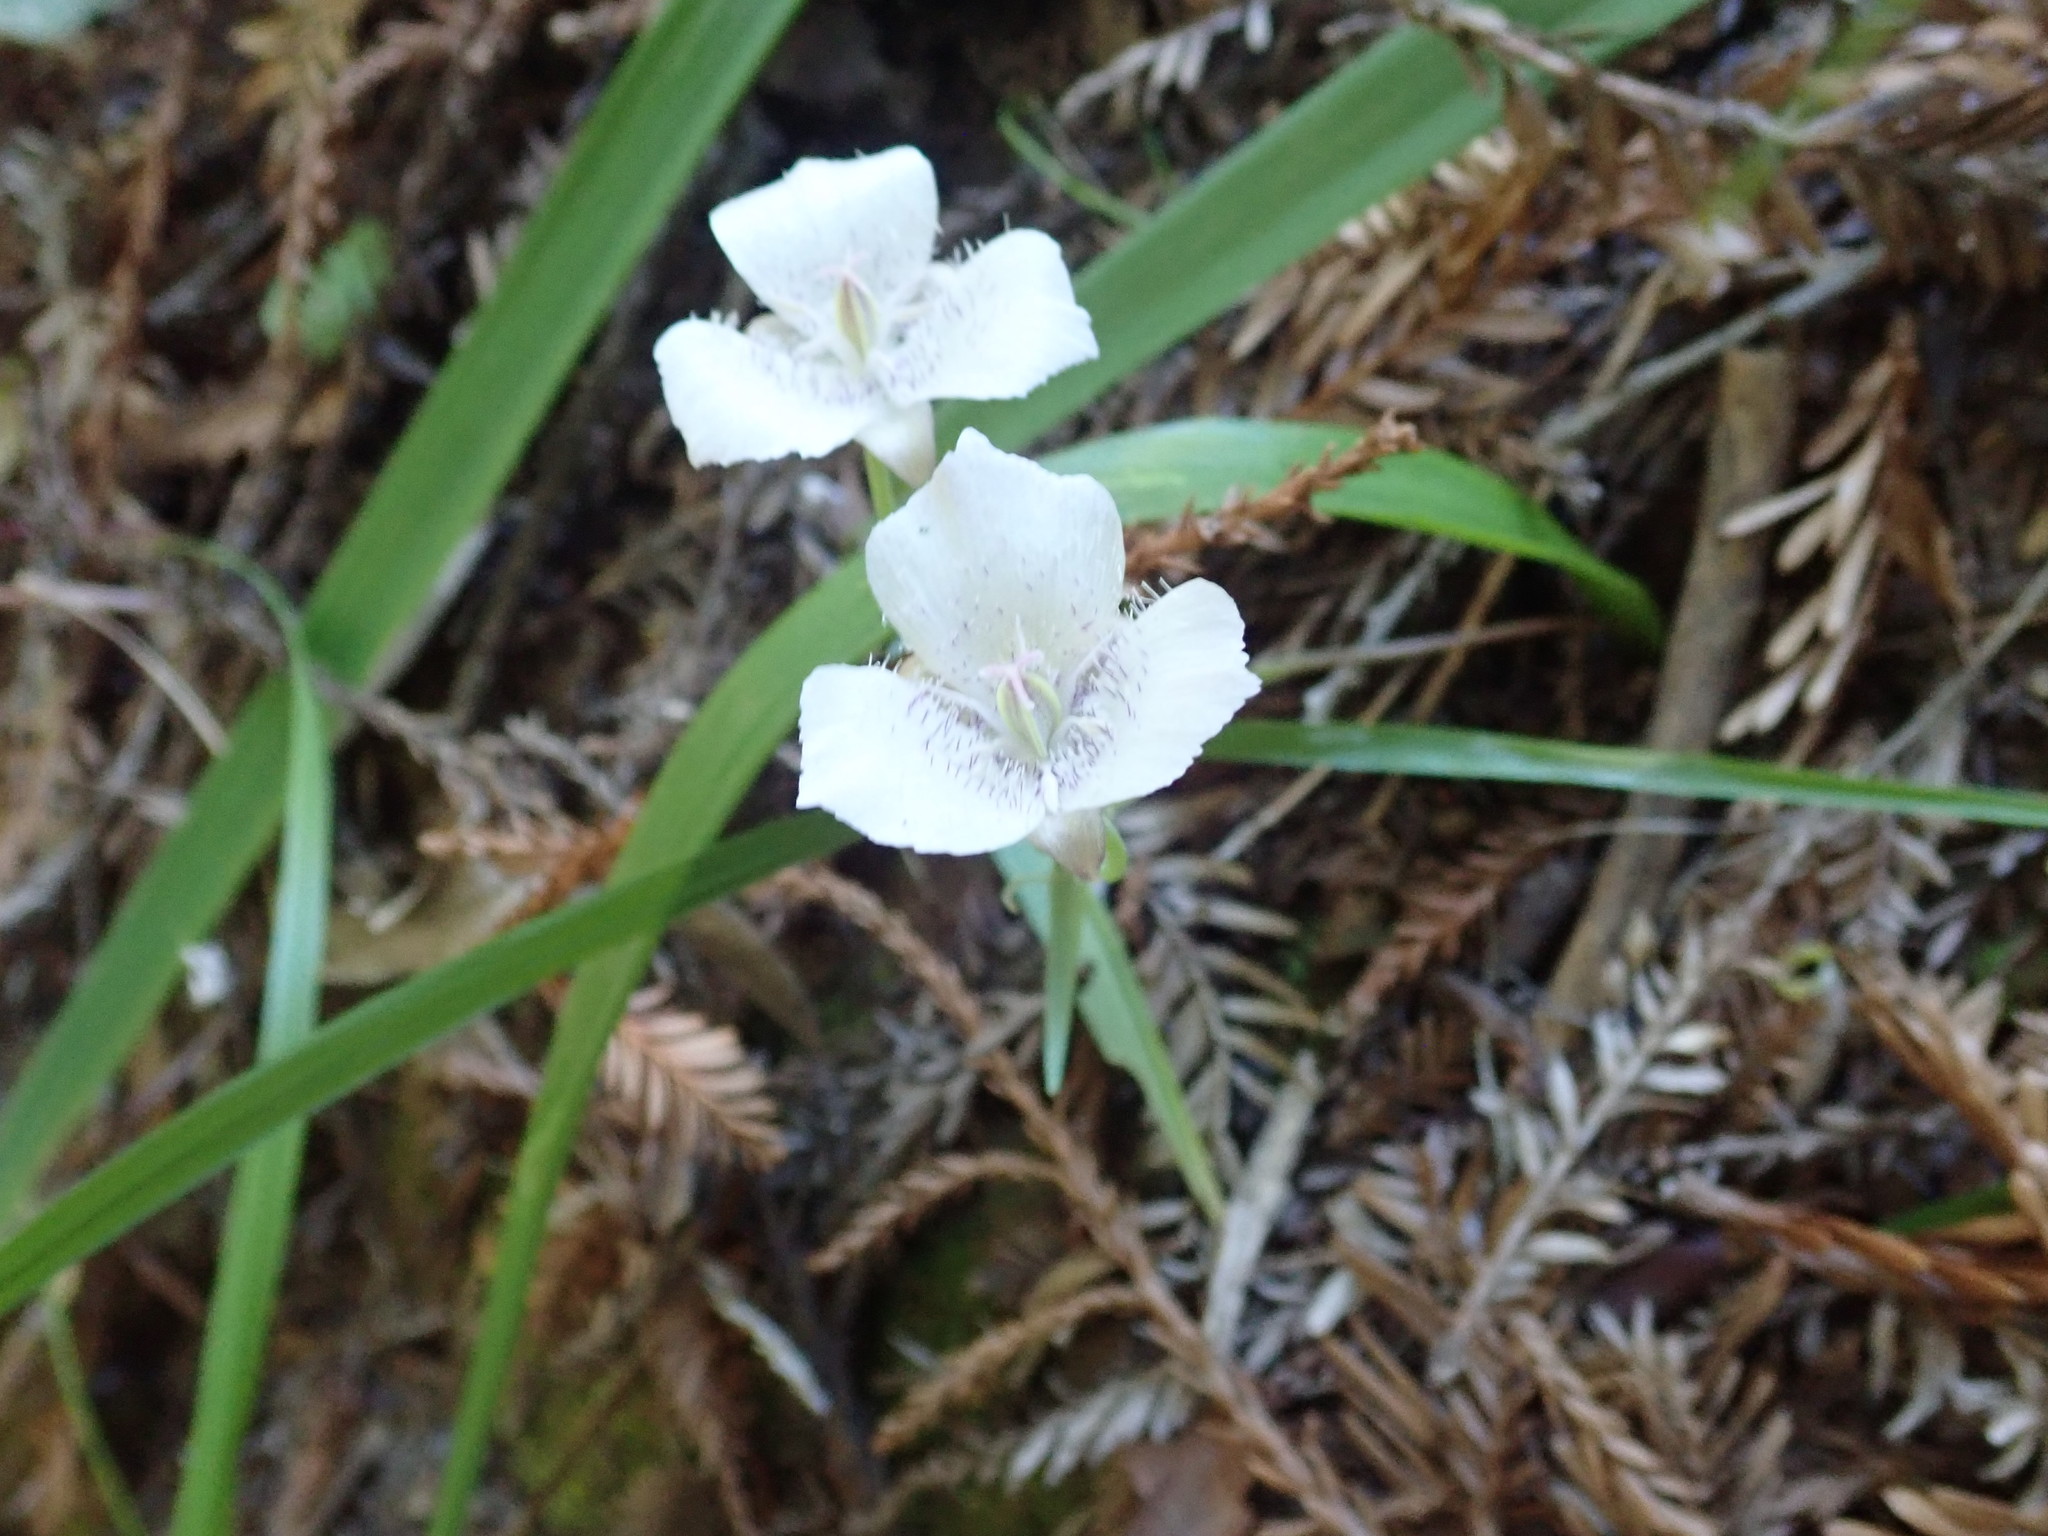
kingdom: Plantae
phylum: Tracheophyta
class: Liliopsida
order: Liliales
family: Liliaceae
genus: Calochortus
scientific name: Calochortus tolmiei
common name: Pussy-ears
